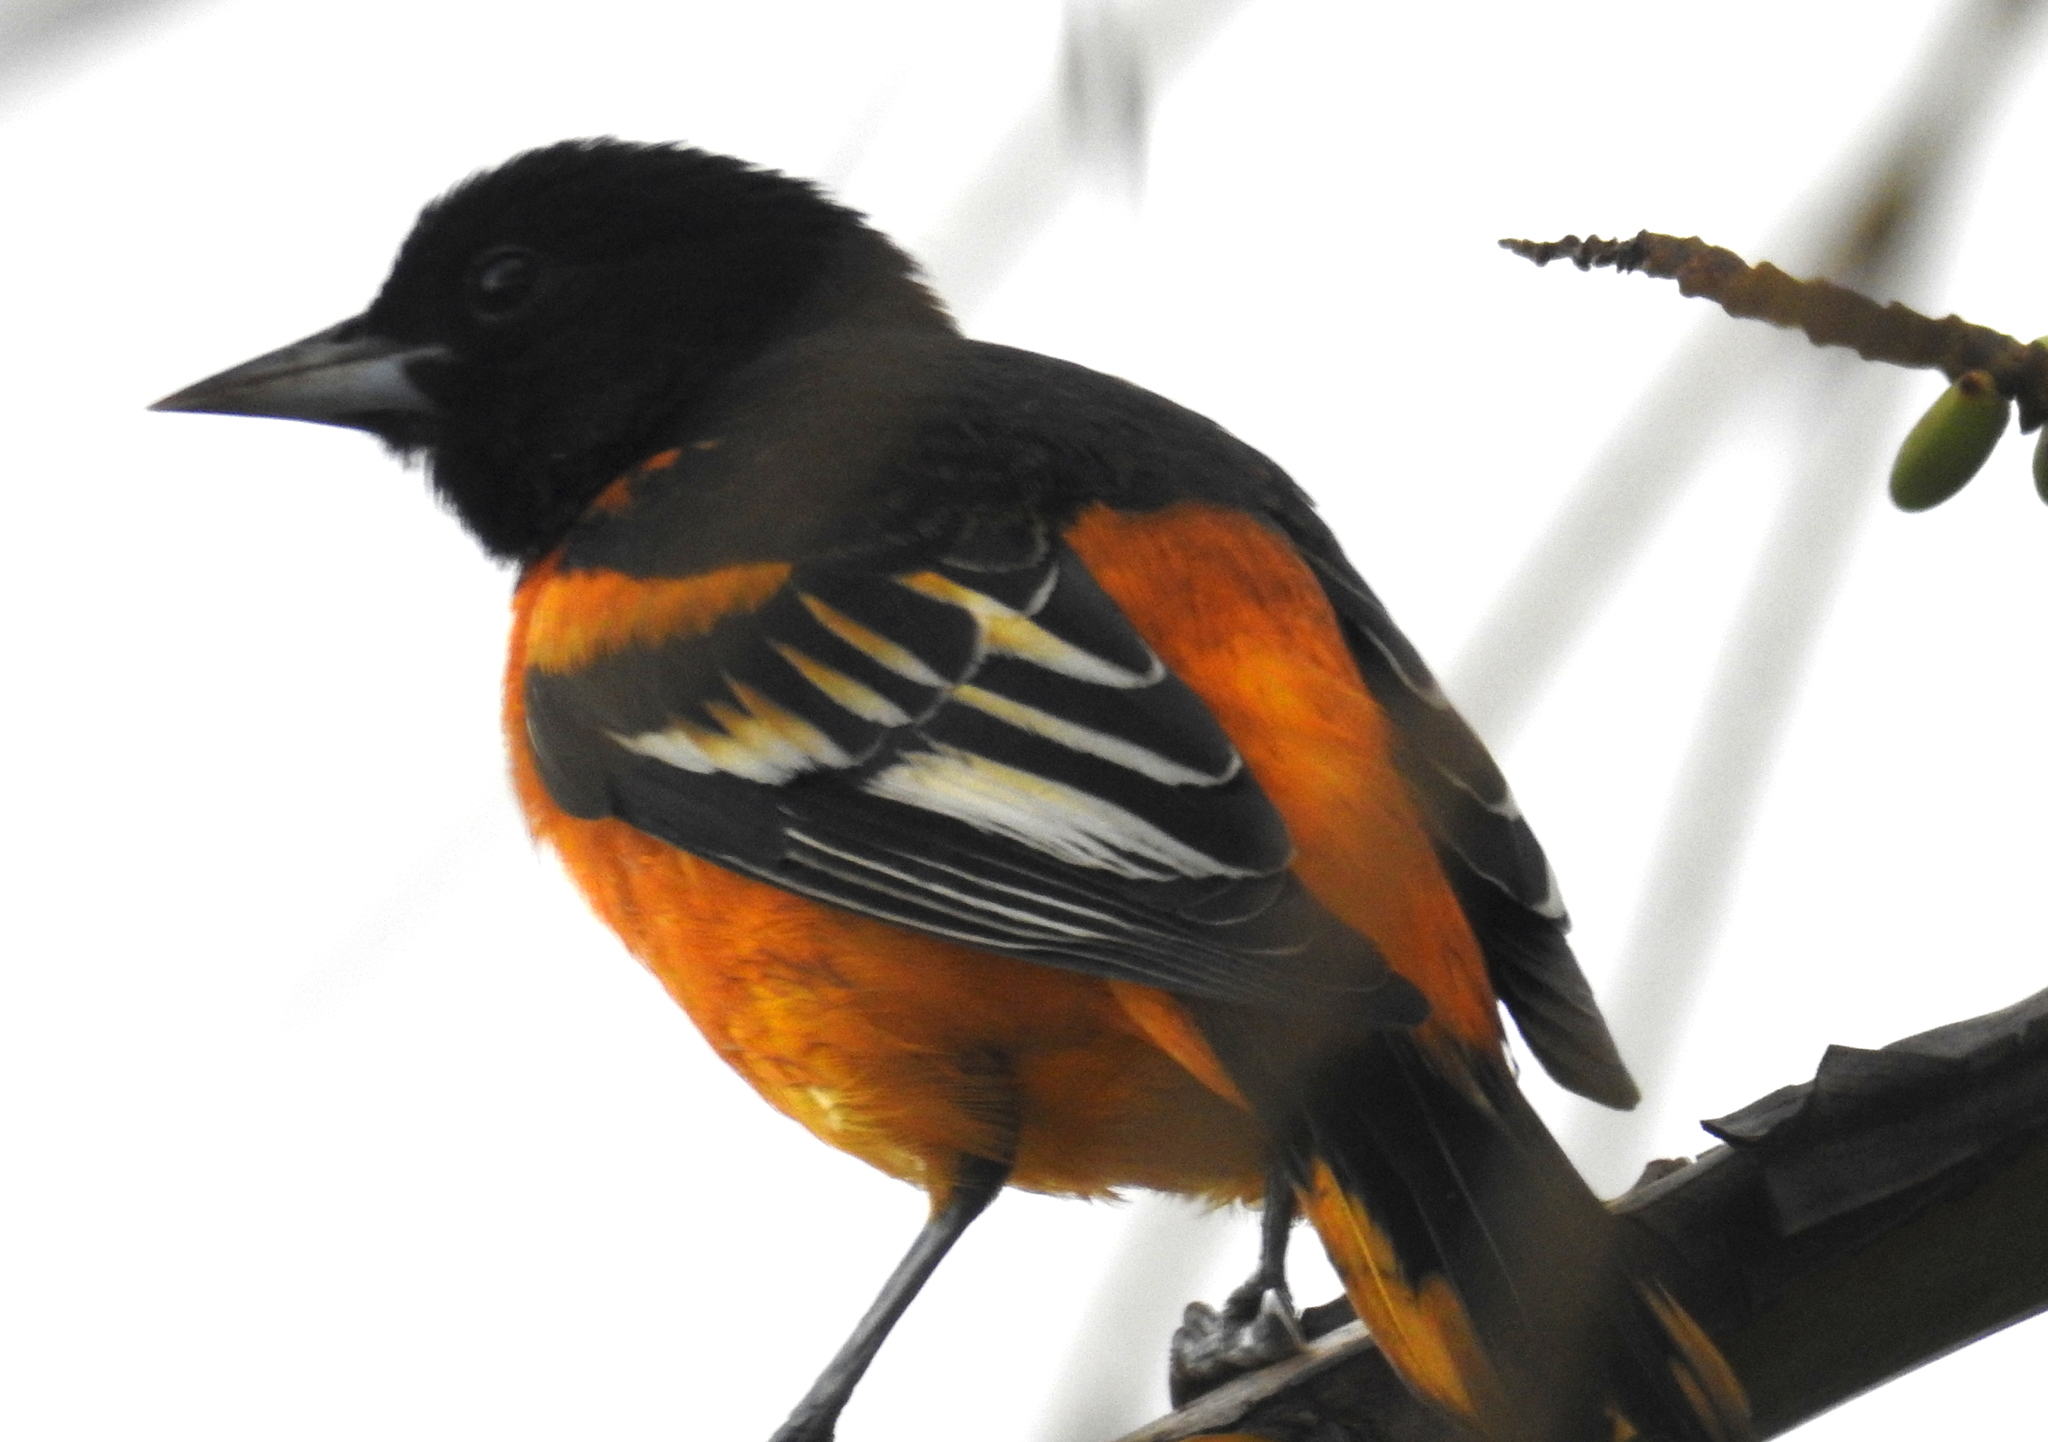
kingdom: Animalia
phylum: Chordata
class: Aves
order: Passeriformes
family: Icteridae
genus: Icterus
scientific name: Icterus galbula
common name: Baltimore oriole
